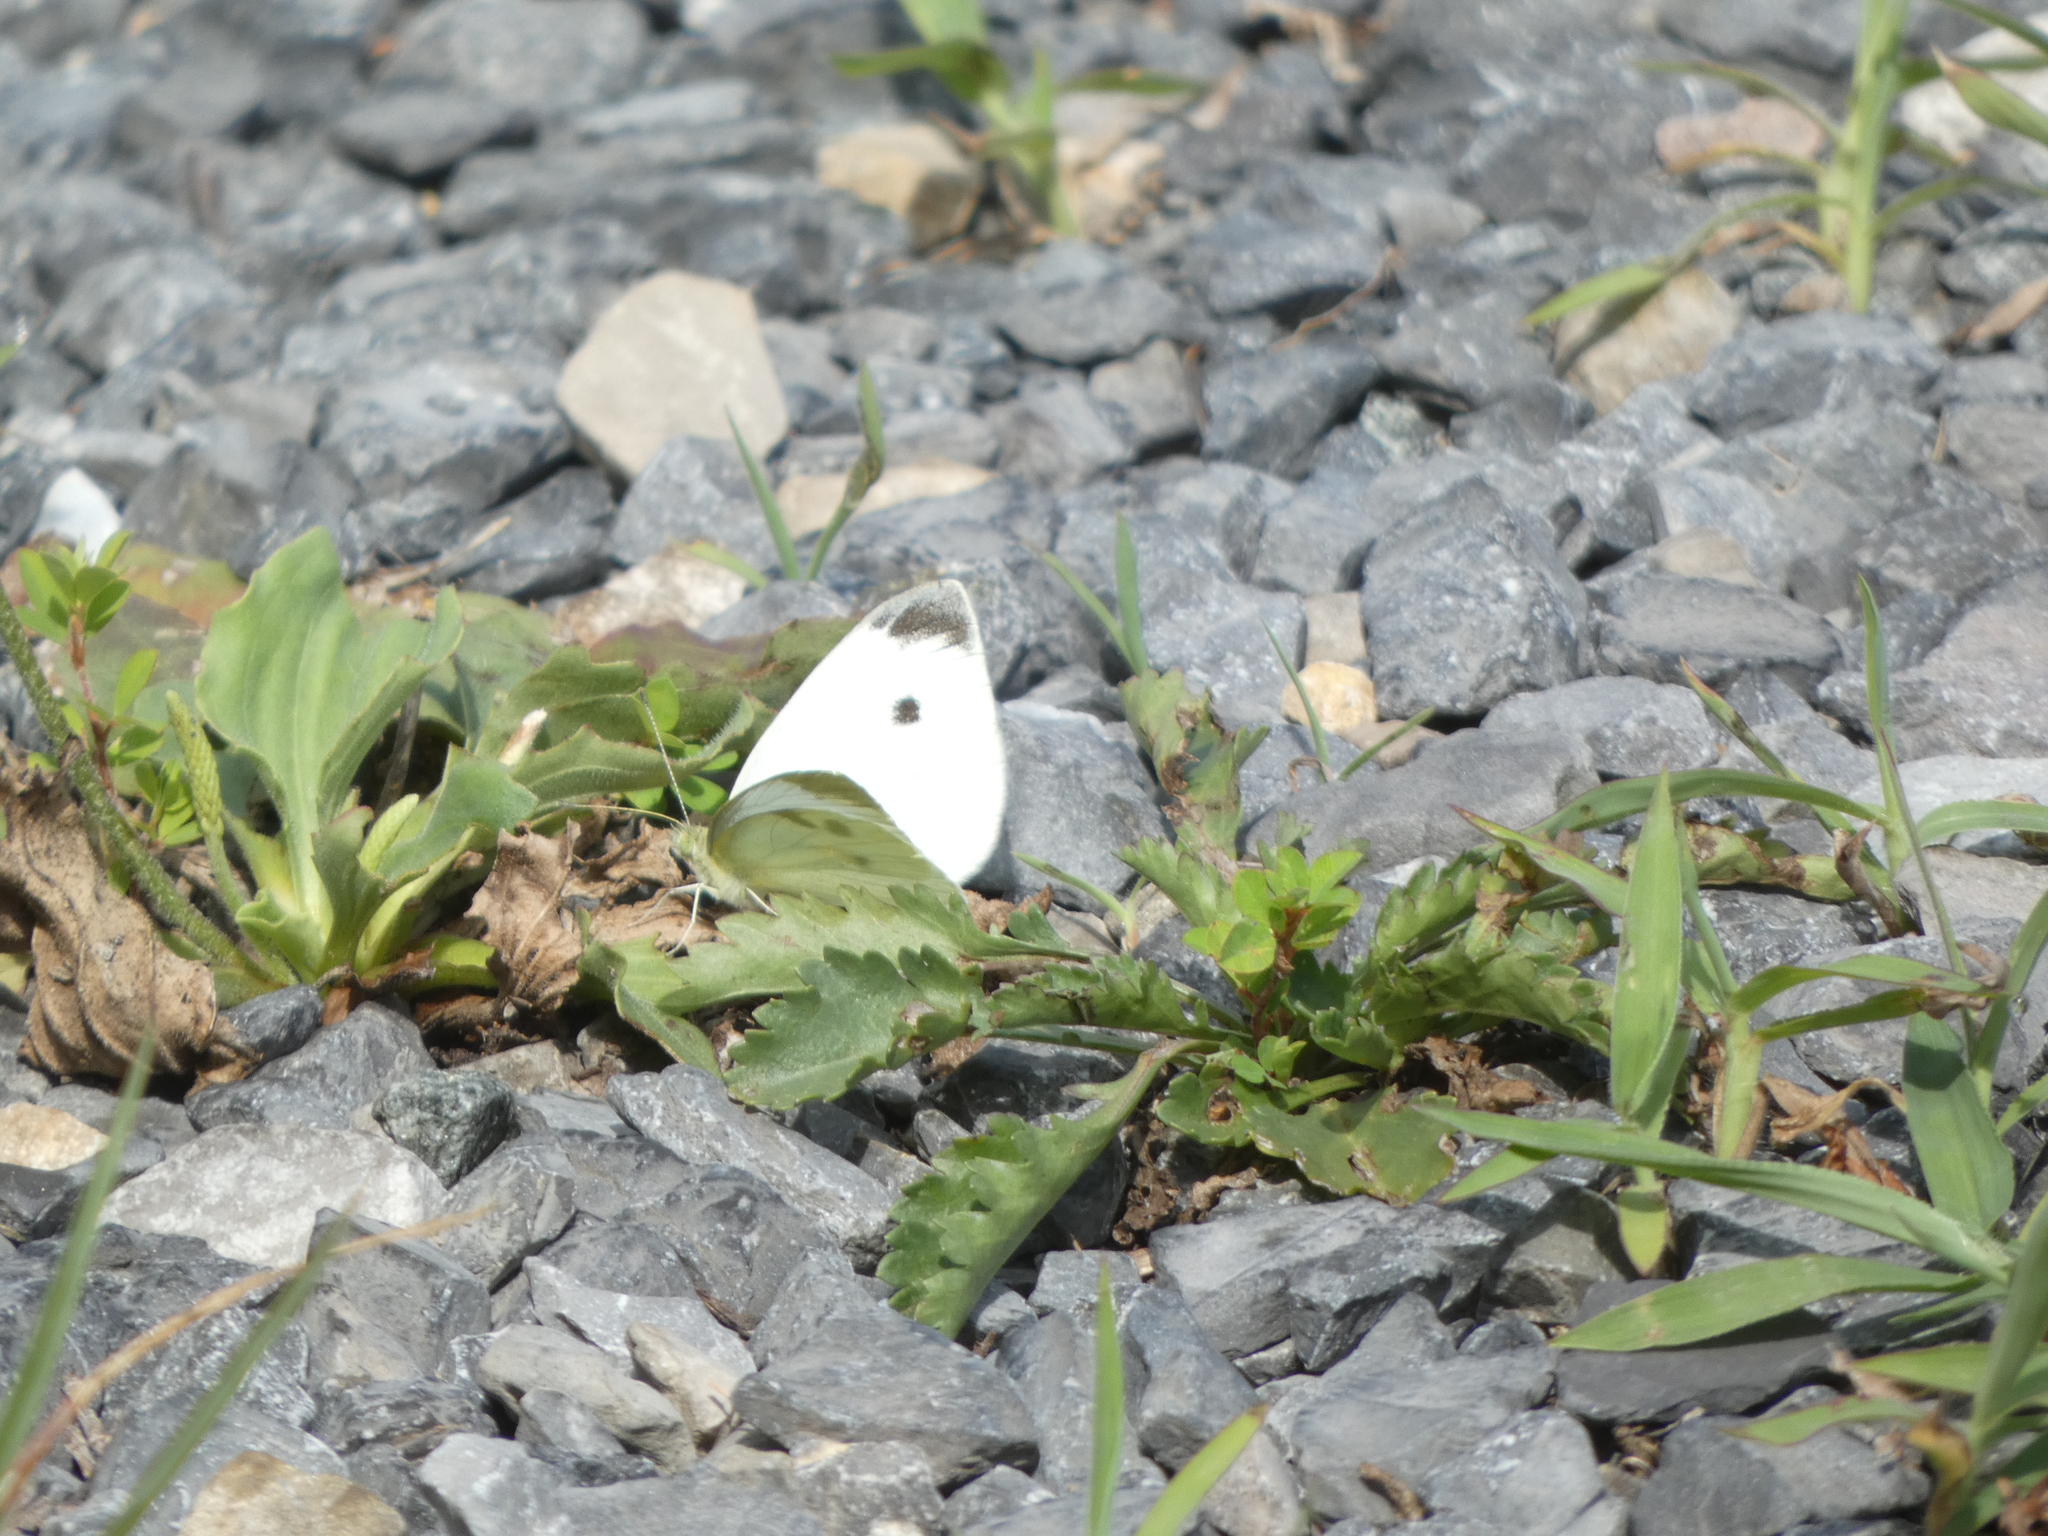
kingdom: Animalia
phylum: Arthropoda
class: Insecta
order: Lepidoptera
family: Pieridae
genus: Pieris
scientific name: Pieris rapae
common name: Small white
